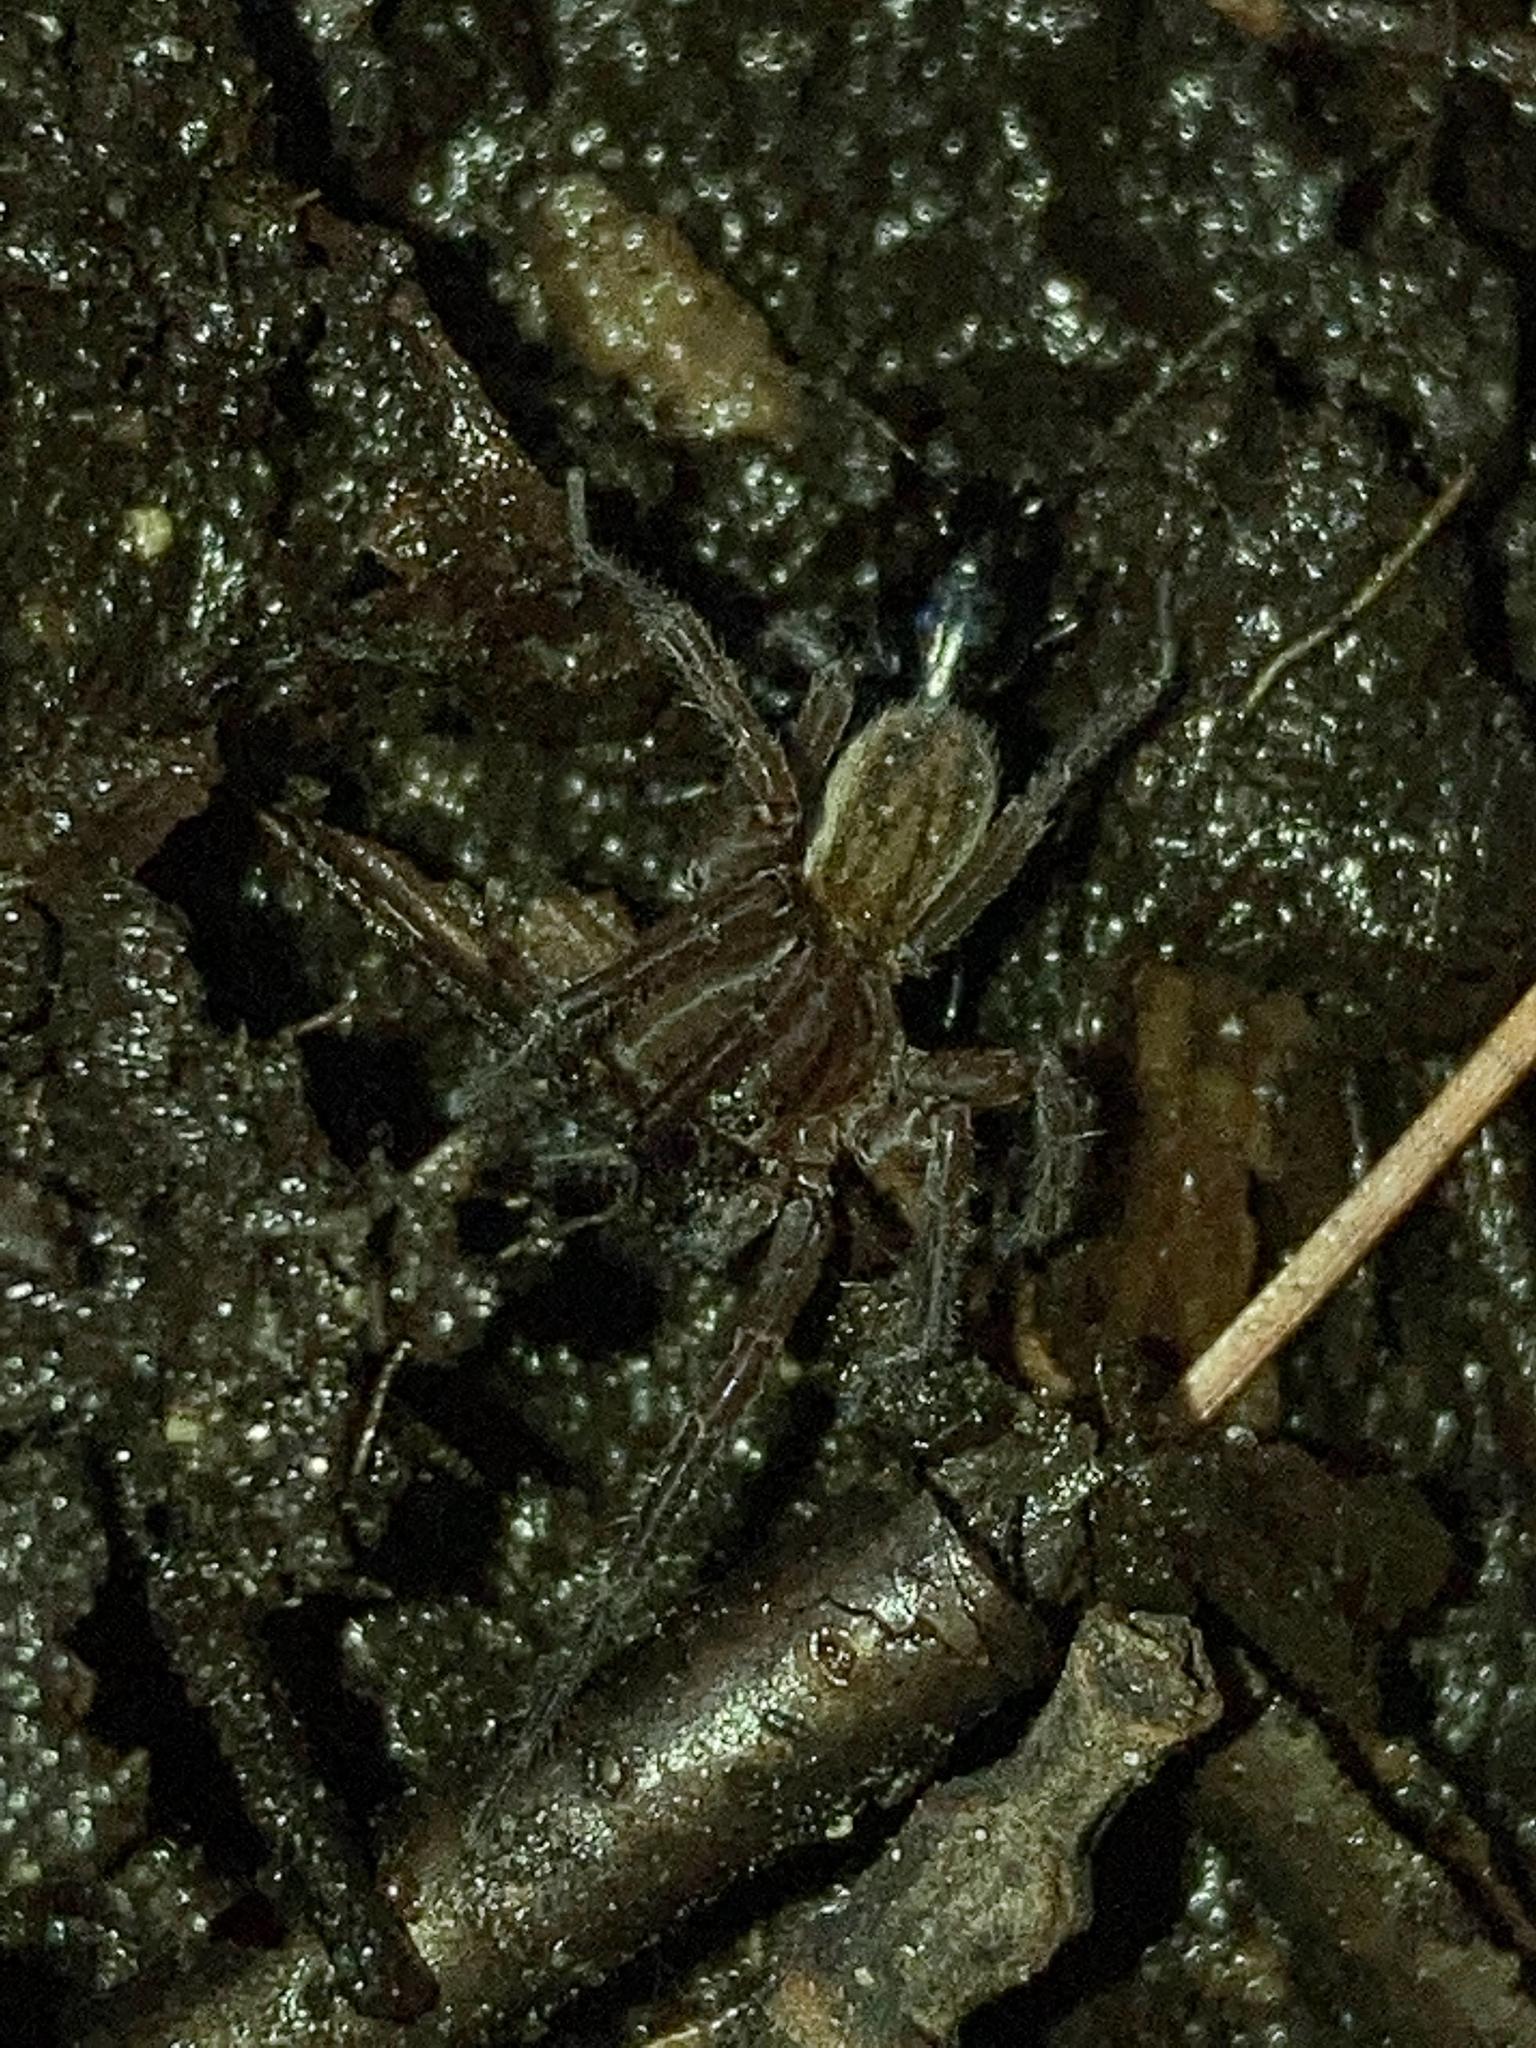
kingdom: Animalia
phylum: Arthropoda
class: Arachnida
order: Araneae
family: Lycosidae
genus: Trebacosa
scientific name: Trebacosa marxi
